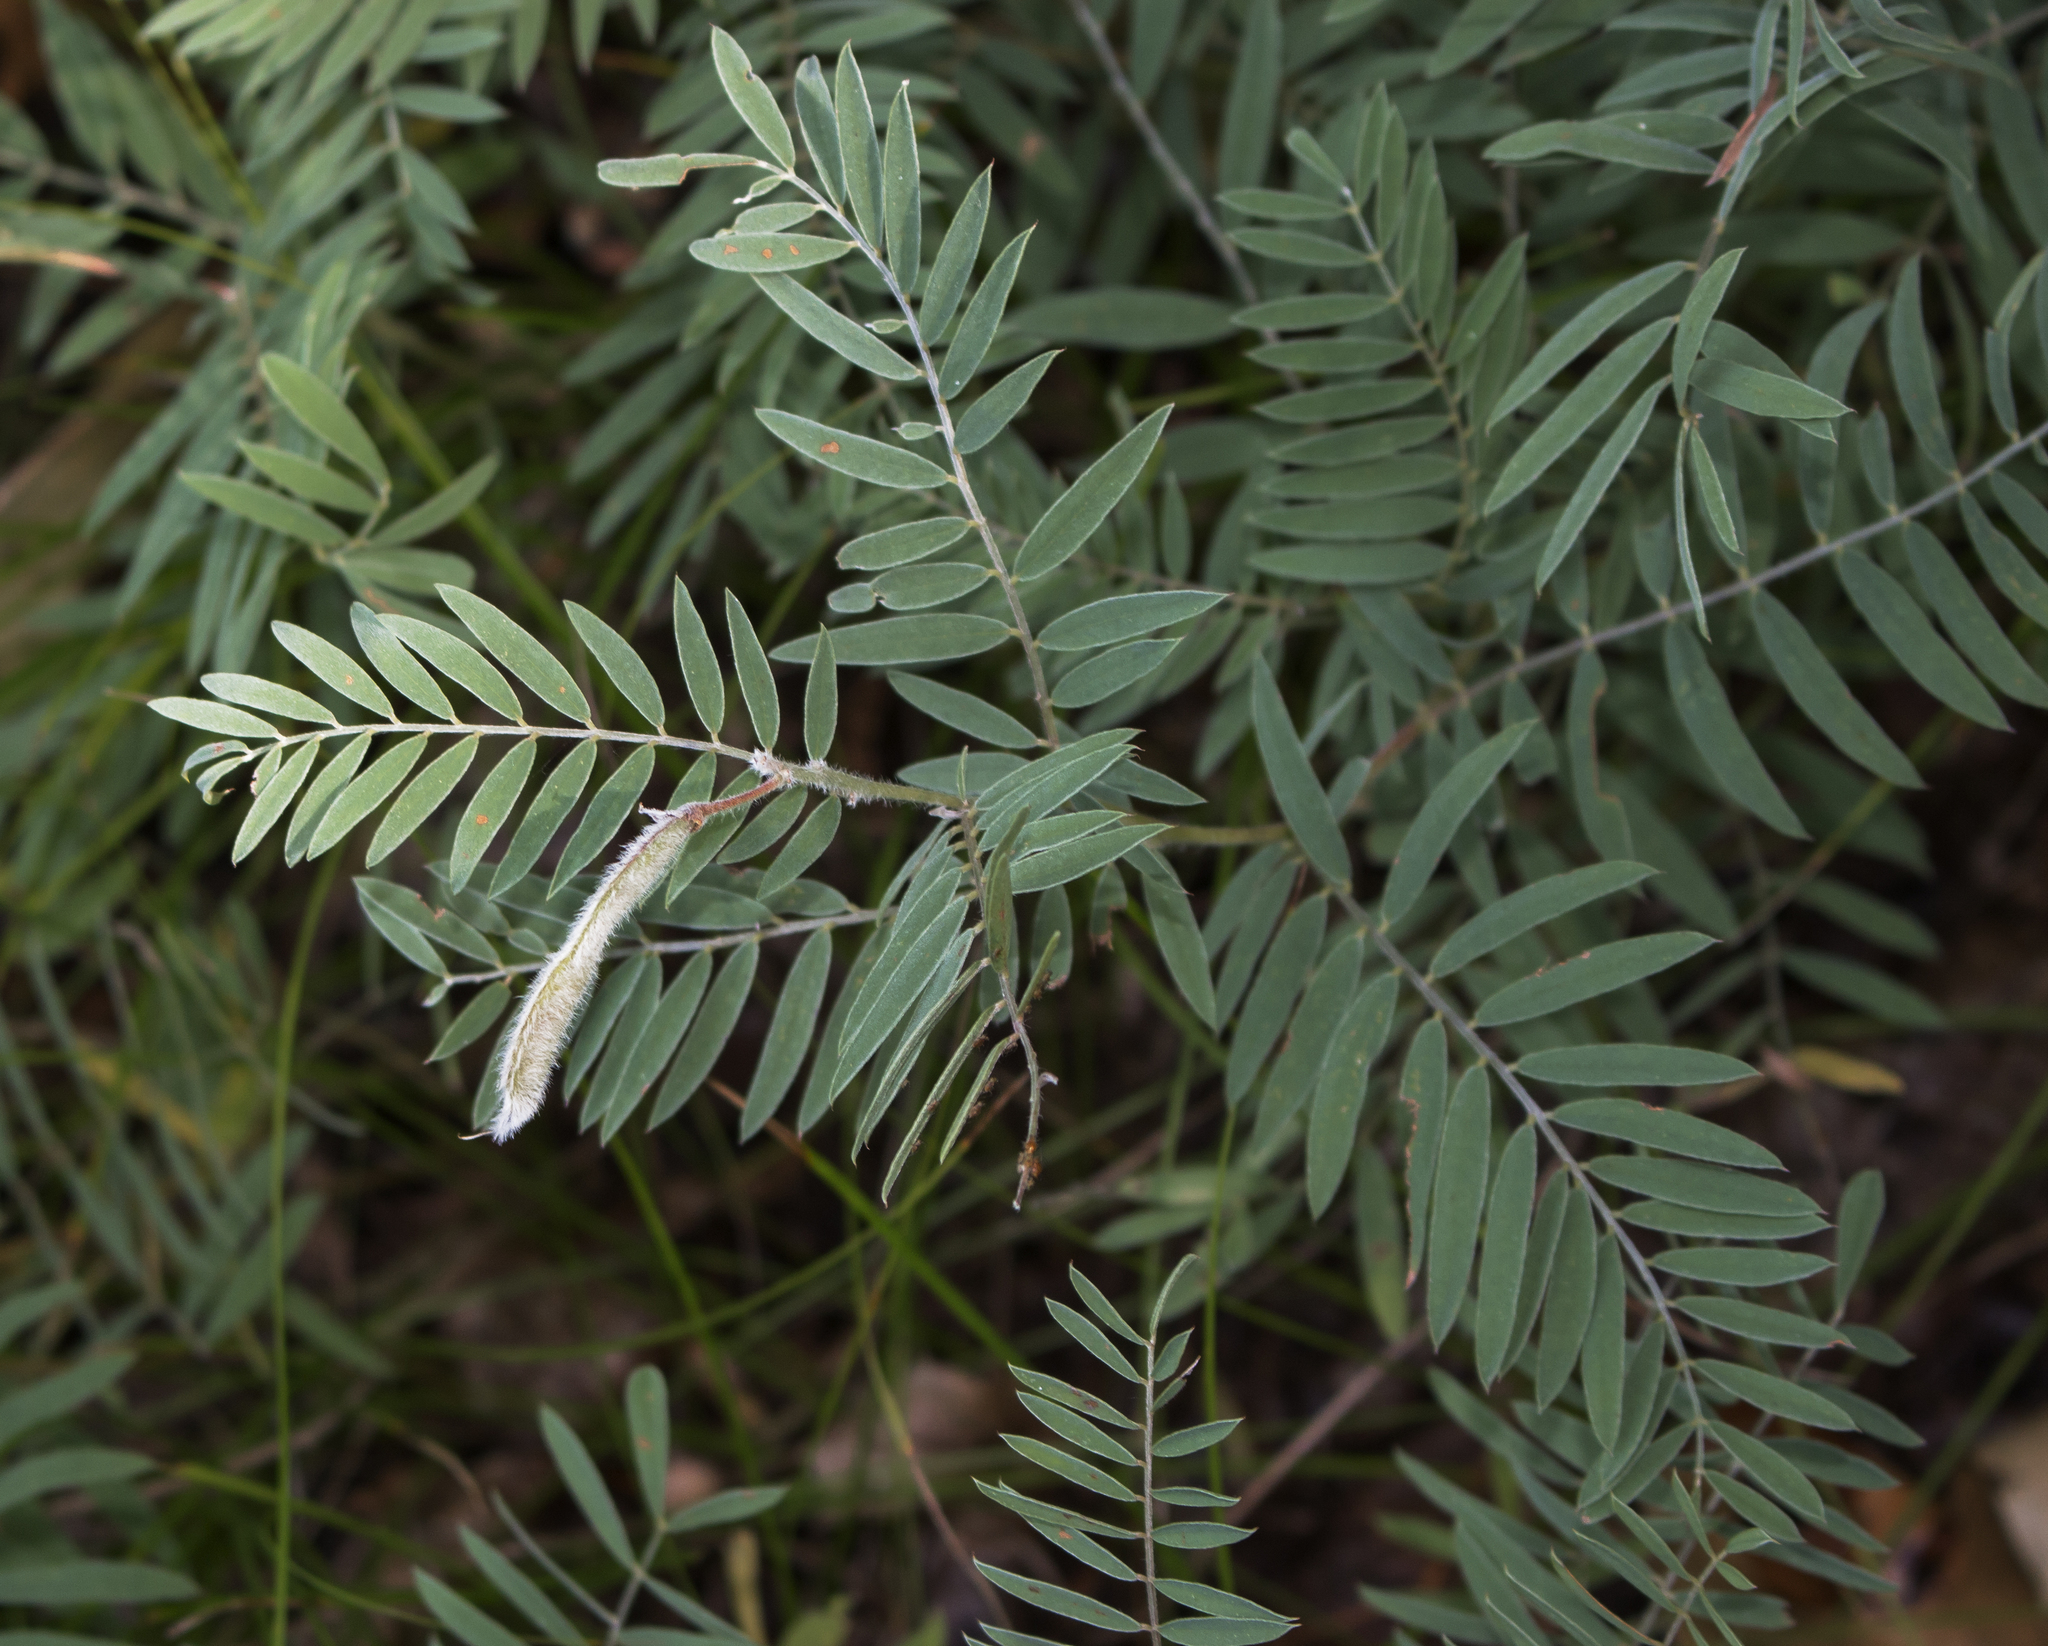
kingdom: Plantae
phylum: Tracheophyta
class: Magnoliopsida
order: Fabales
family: Fabaceae
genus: Tephrosia
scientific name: Tephrosia virginiana
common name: Rabbit-pea
